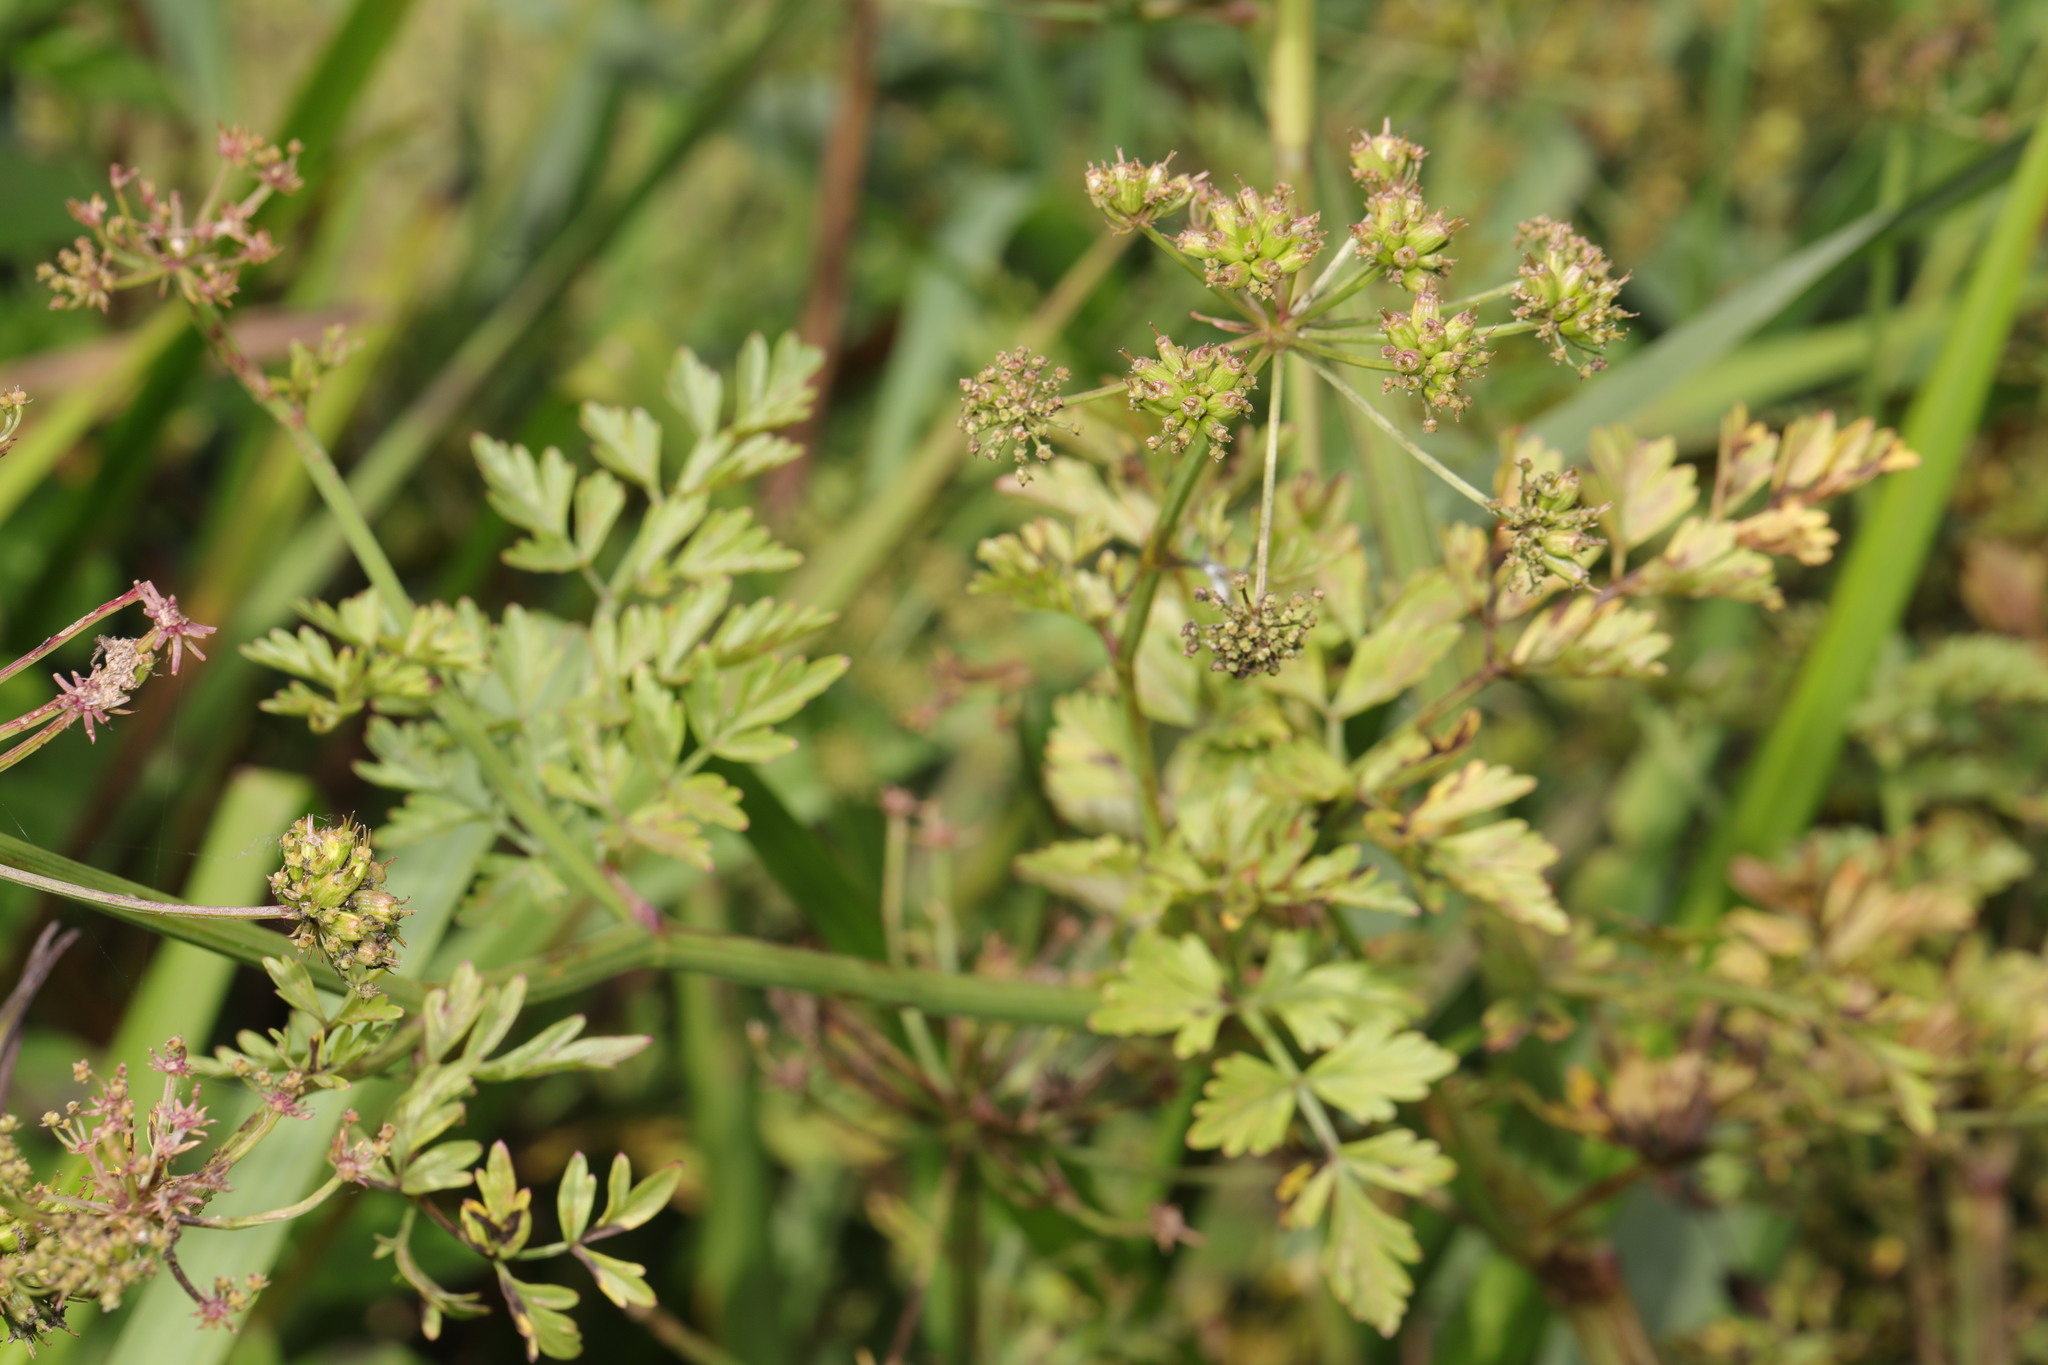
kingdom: Plantae
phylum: Tracheophyta
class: Magnoliopsida
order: Apiales
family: Apiaceae
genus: Oenanthe
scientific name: Oenanthe crocata
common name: Hemlock water-dropwort
